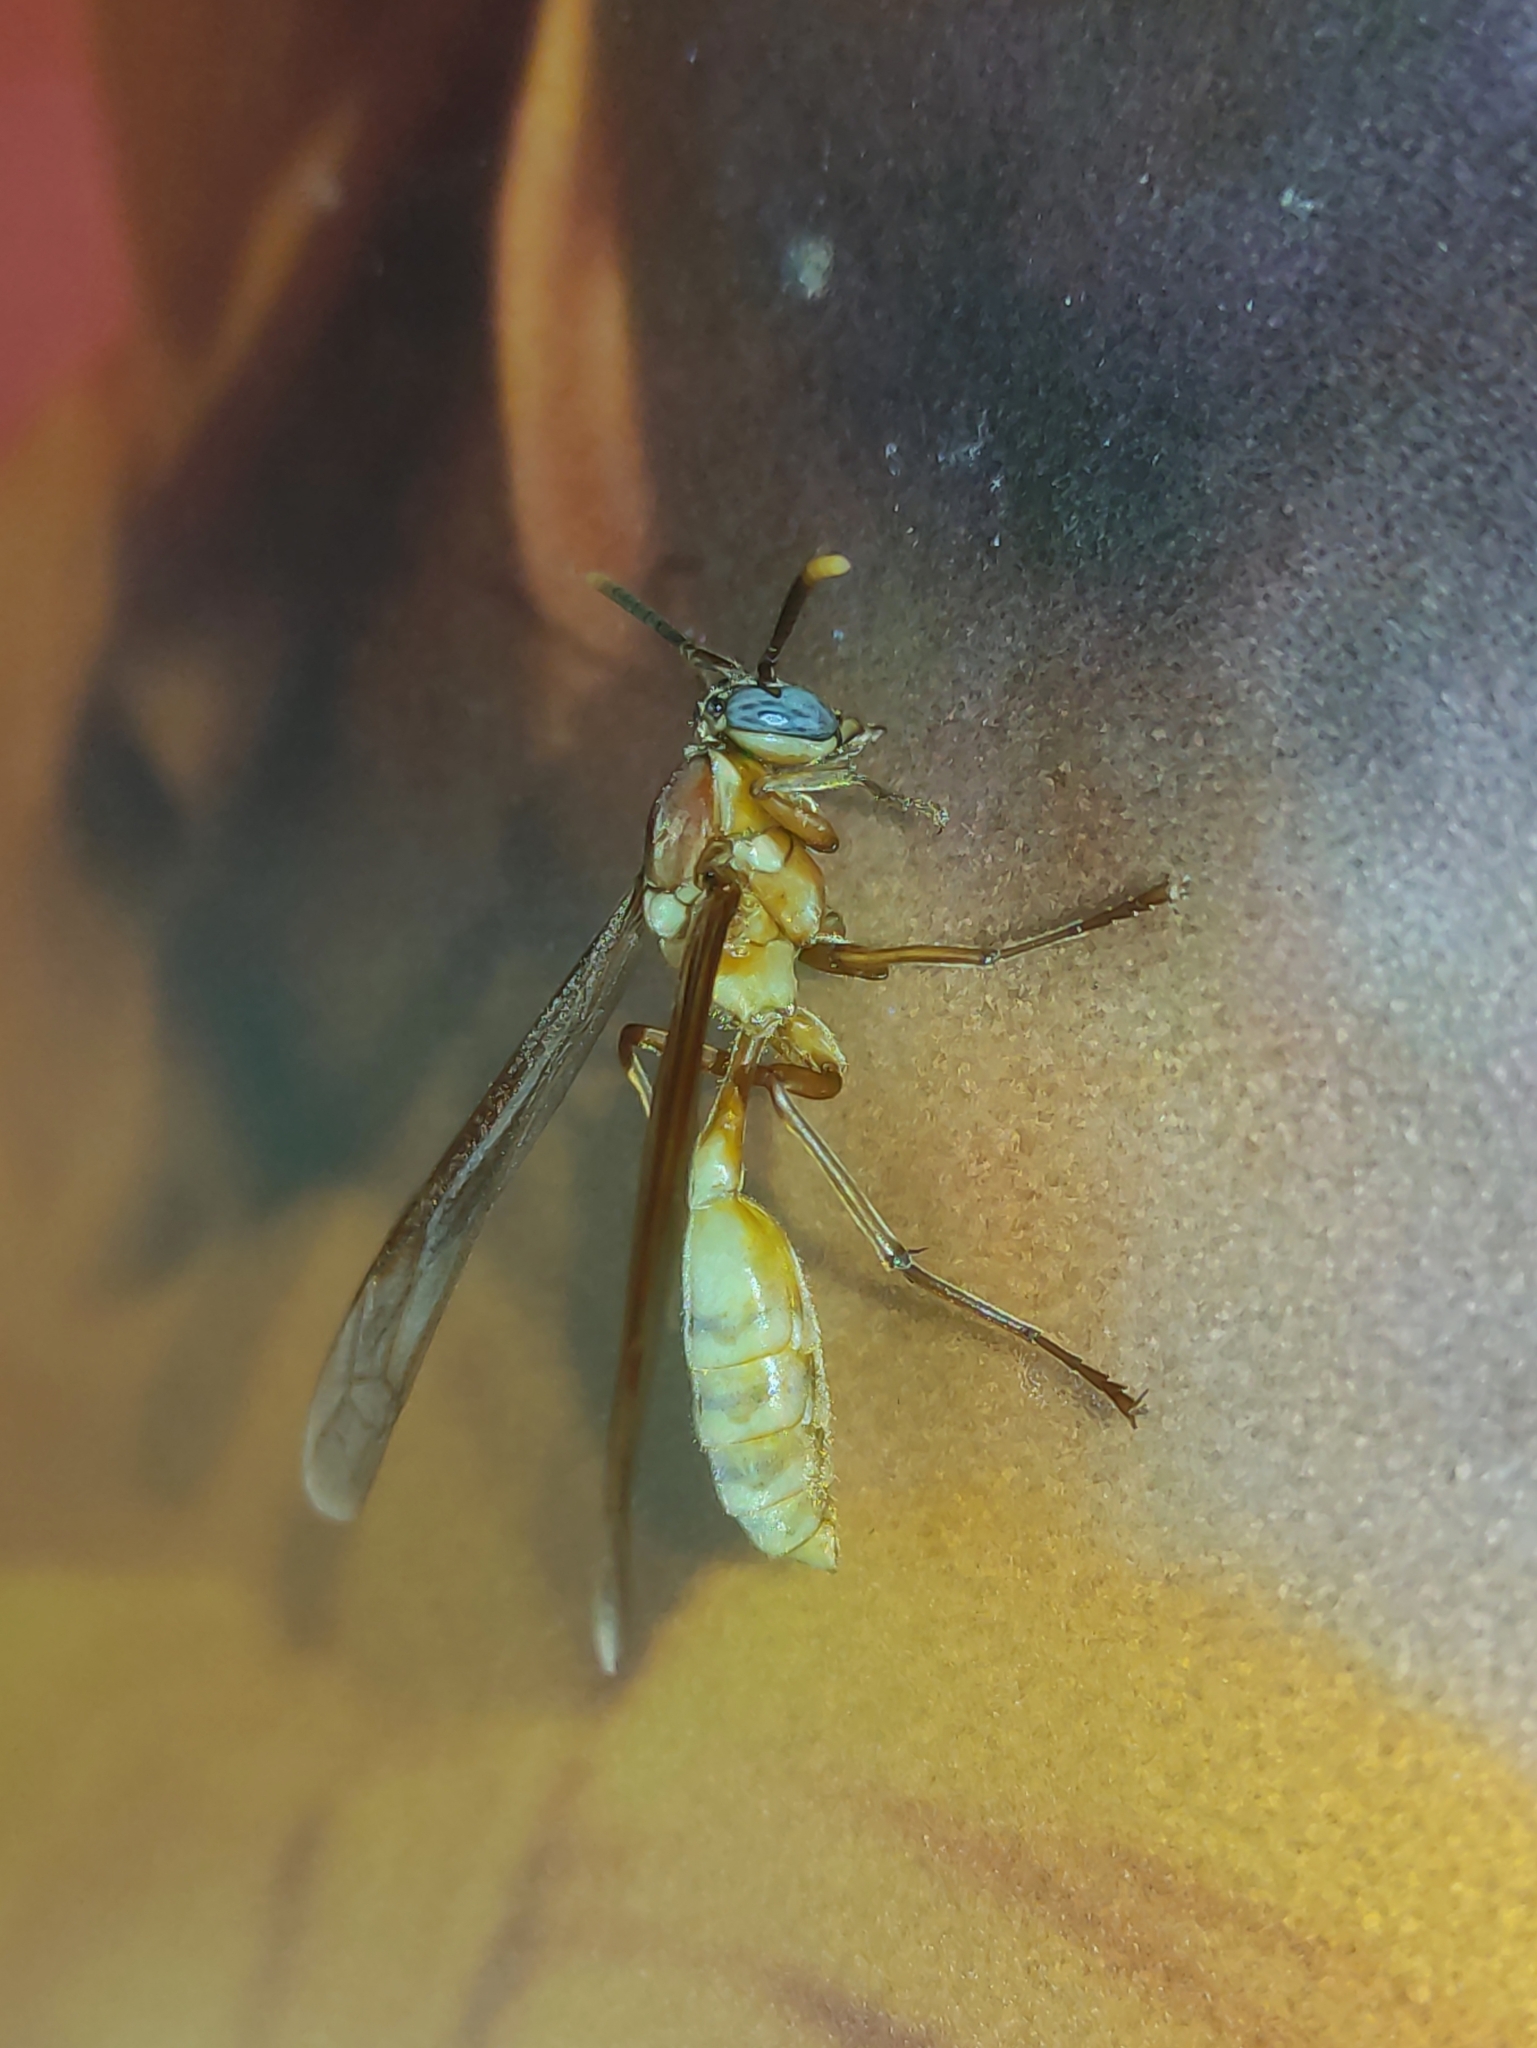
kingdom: Animalia
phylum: Arthropoda
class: Insecta
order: Hymenoptera
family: Vespidae
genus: Apoica
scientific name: Apoica gelida
